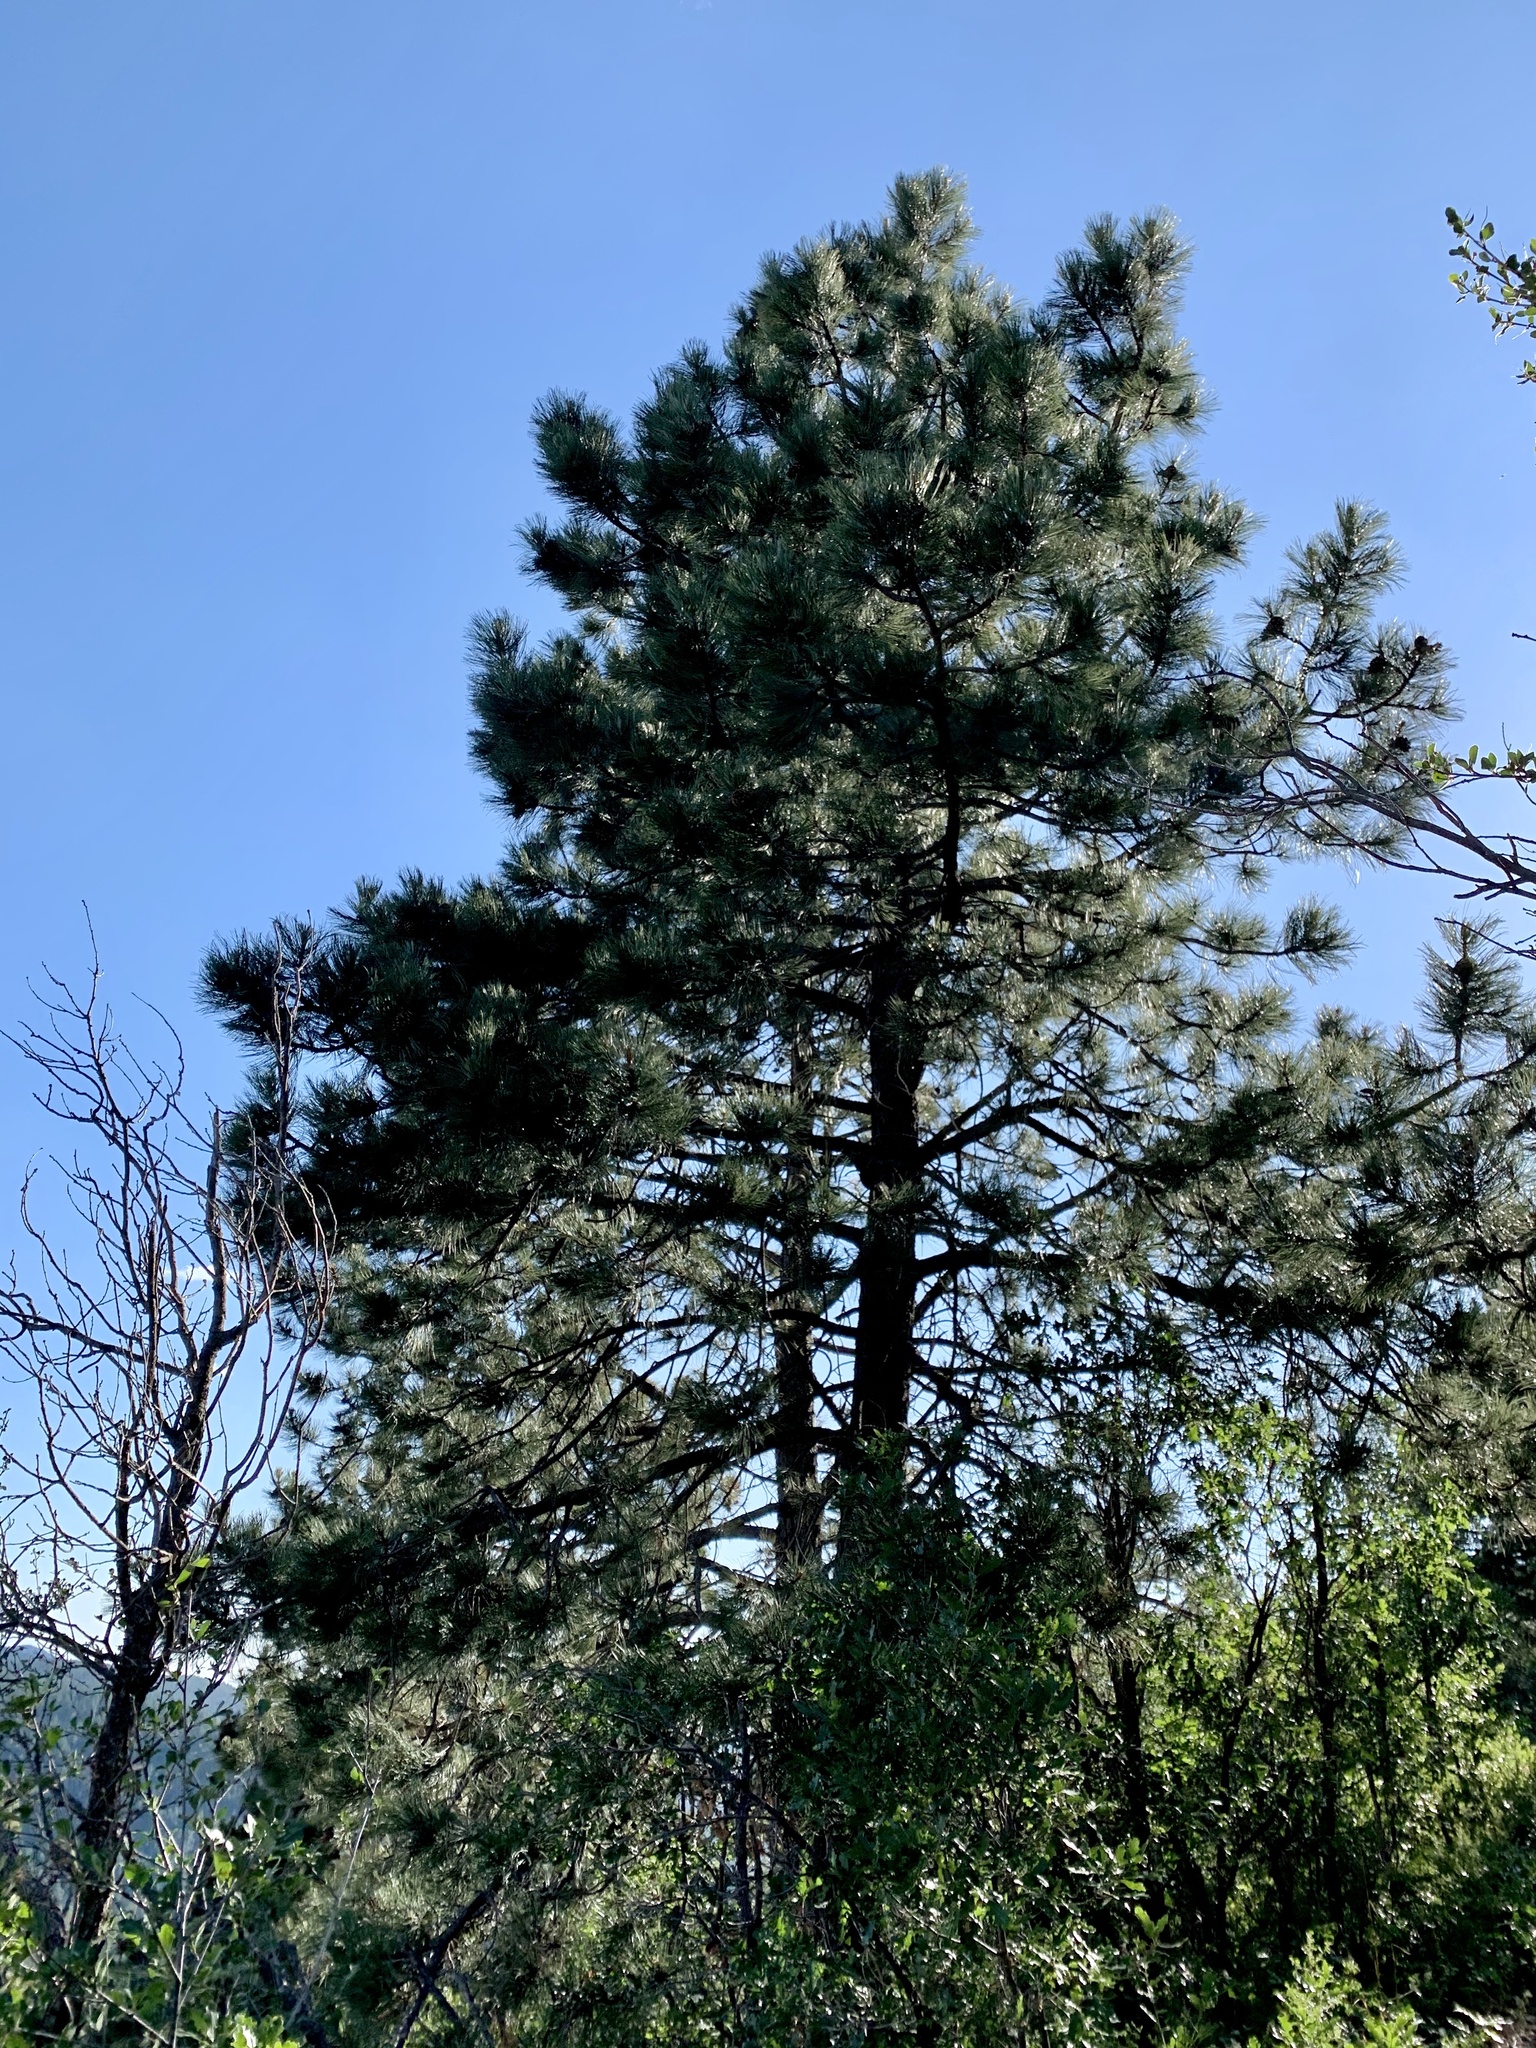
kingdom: Plantae
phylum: Tracheophyta
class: Pinopsida
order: Pinales
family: Pinaceae
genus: Pinus
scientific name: Pinus ponderosa
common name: Western yellow-pine
